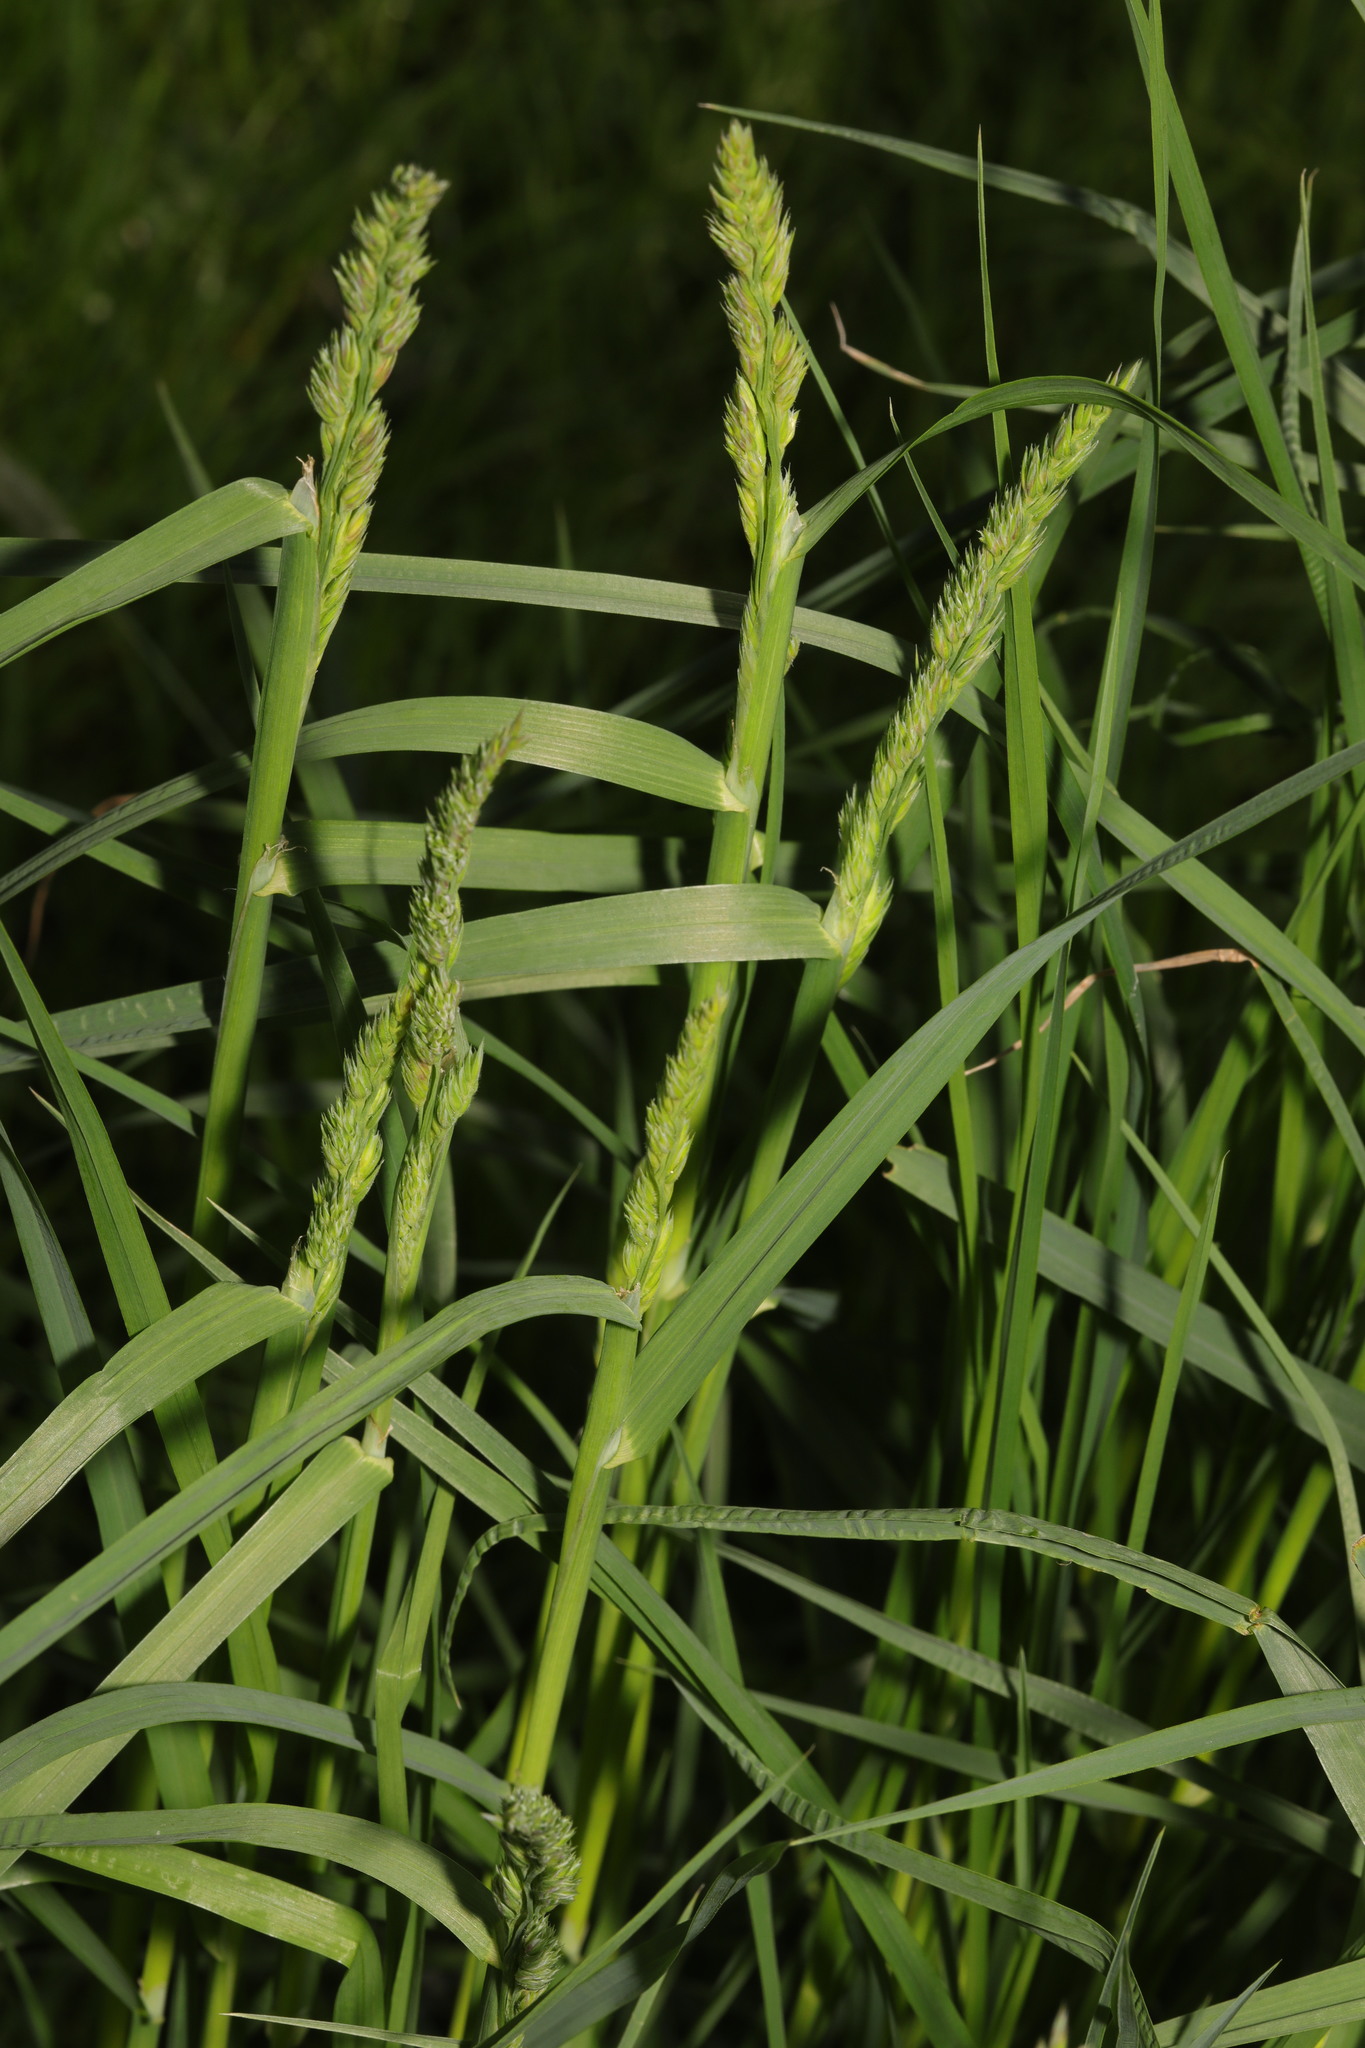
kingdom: Plantae
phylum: Tracheophyta
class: Liliopsida
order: Poales
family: Poaceae
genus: Dactylis
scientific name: Dactylis glomerata
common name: Orchardgrass
